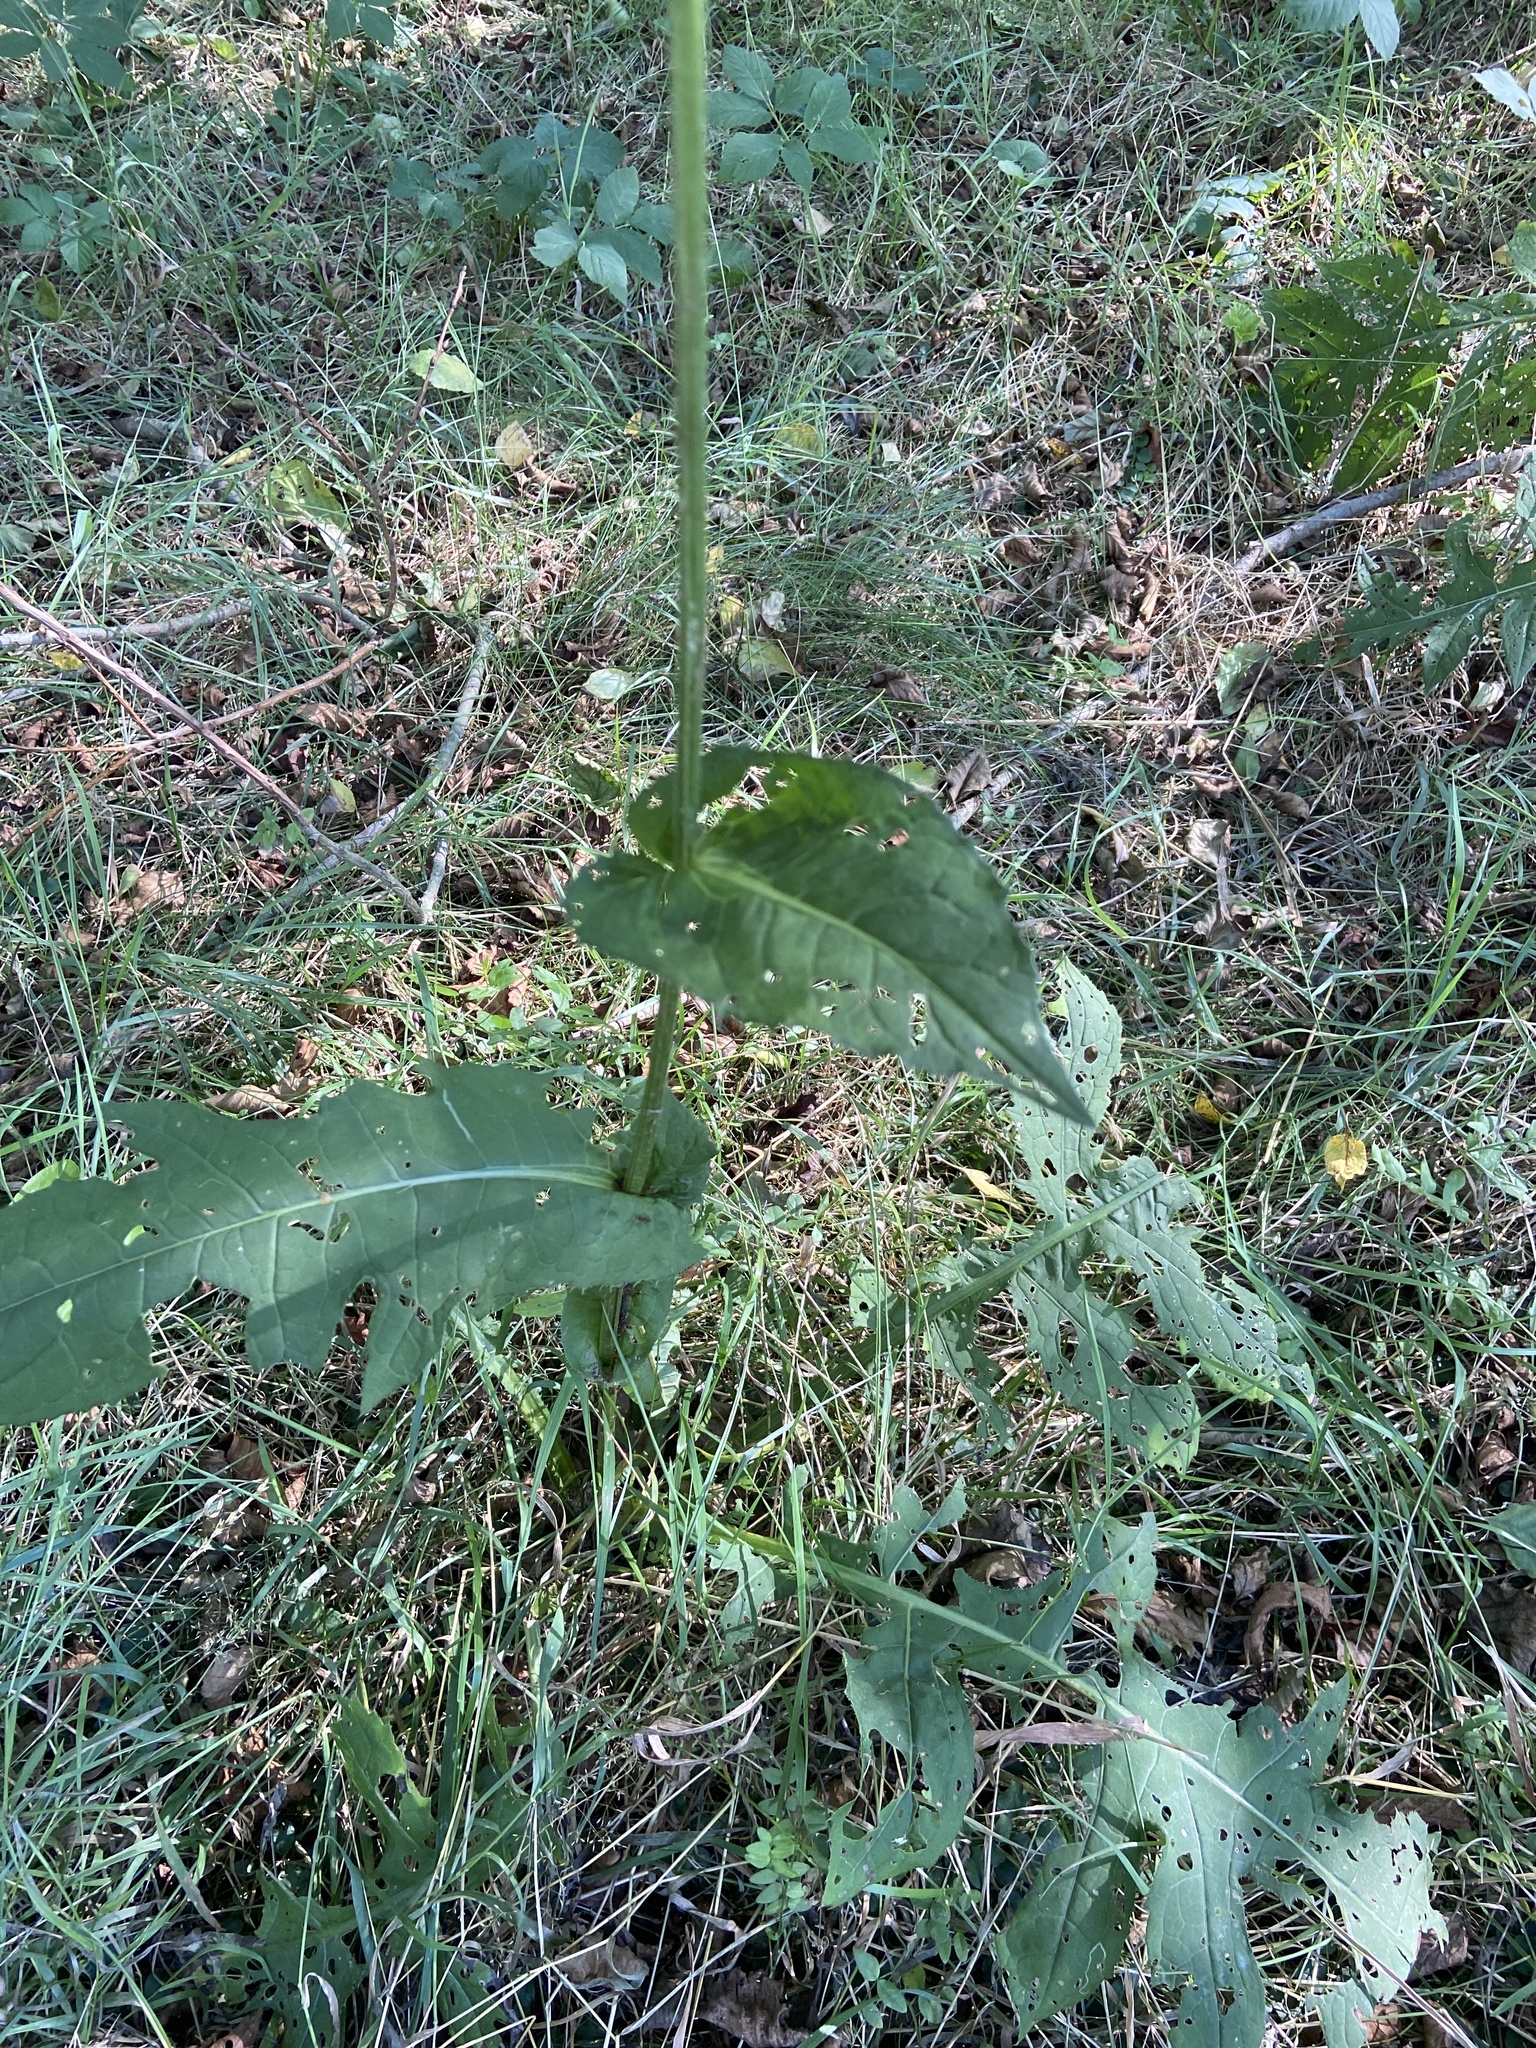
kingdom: Plantae
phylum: Tracheophyta
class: Magnoliopsida
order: Asterales
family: Asteraceae
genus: Cirsium
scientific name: Cirsium oleraceum
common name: Cabbage thistle
